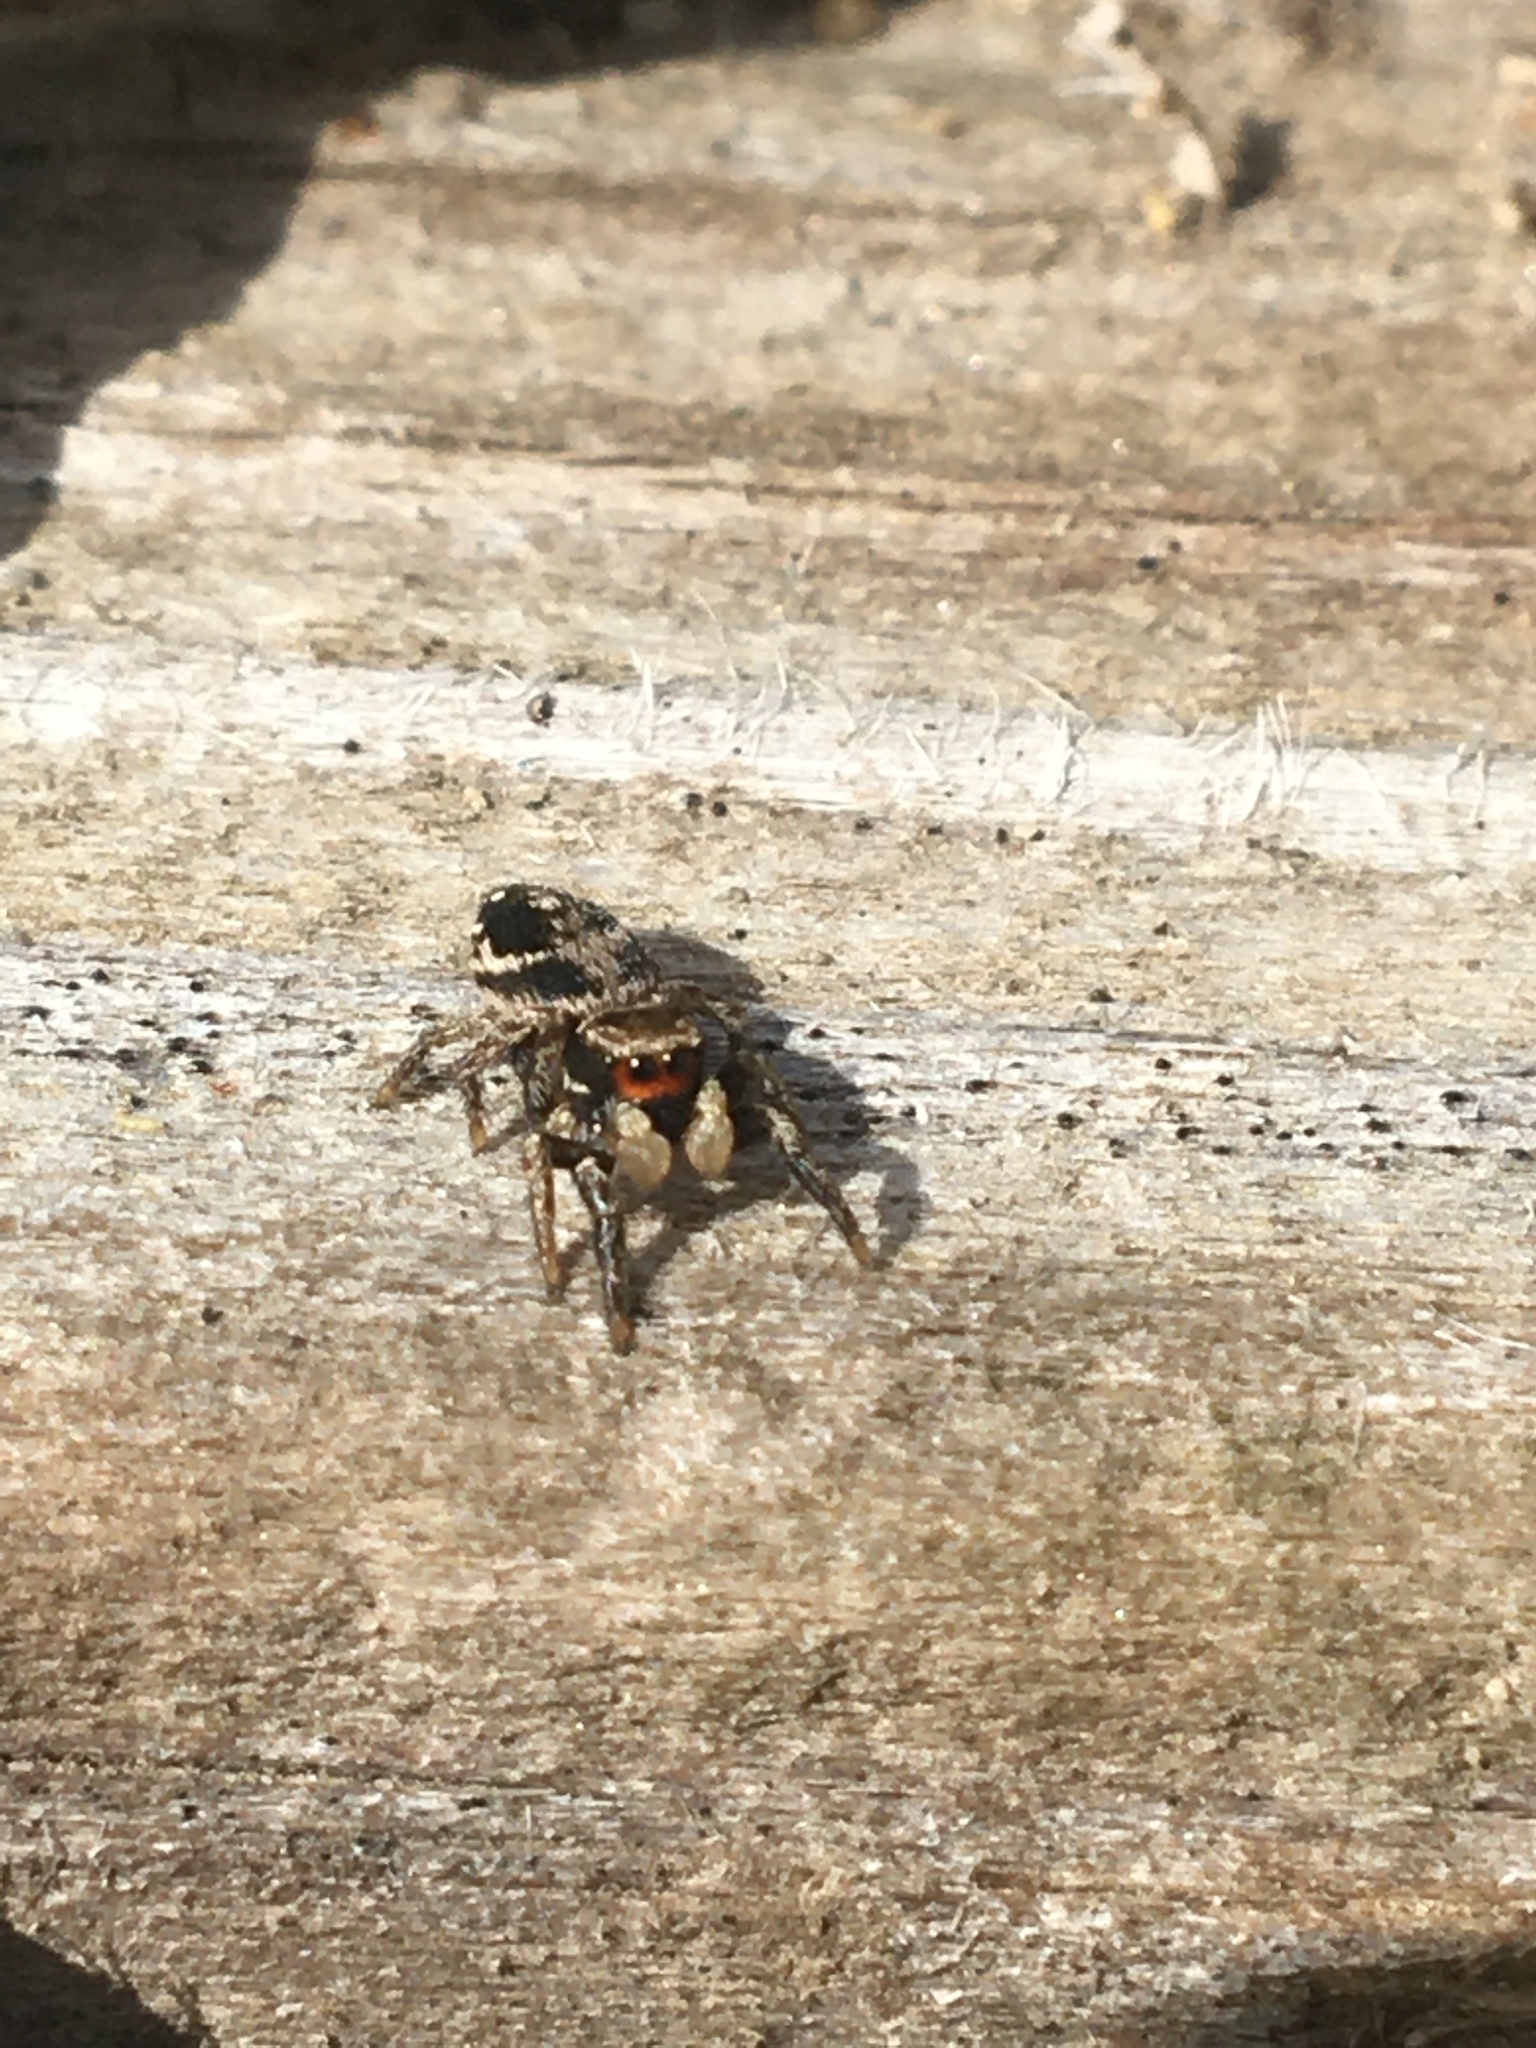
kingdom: Animalia
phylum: Arthropoda
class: Arachnida
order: Araneae
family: Salticidae
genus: Habronattus
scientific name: Habronattus
